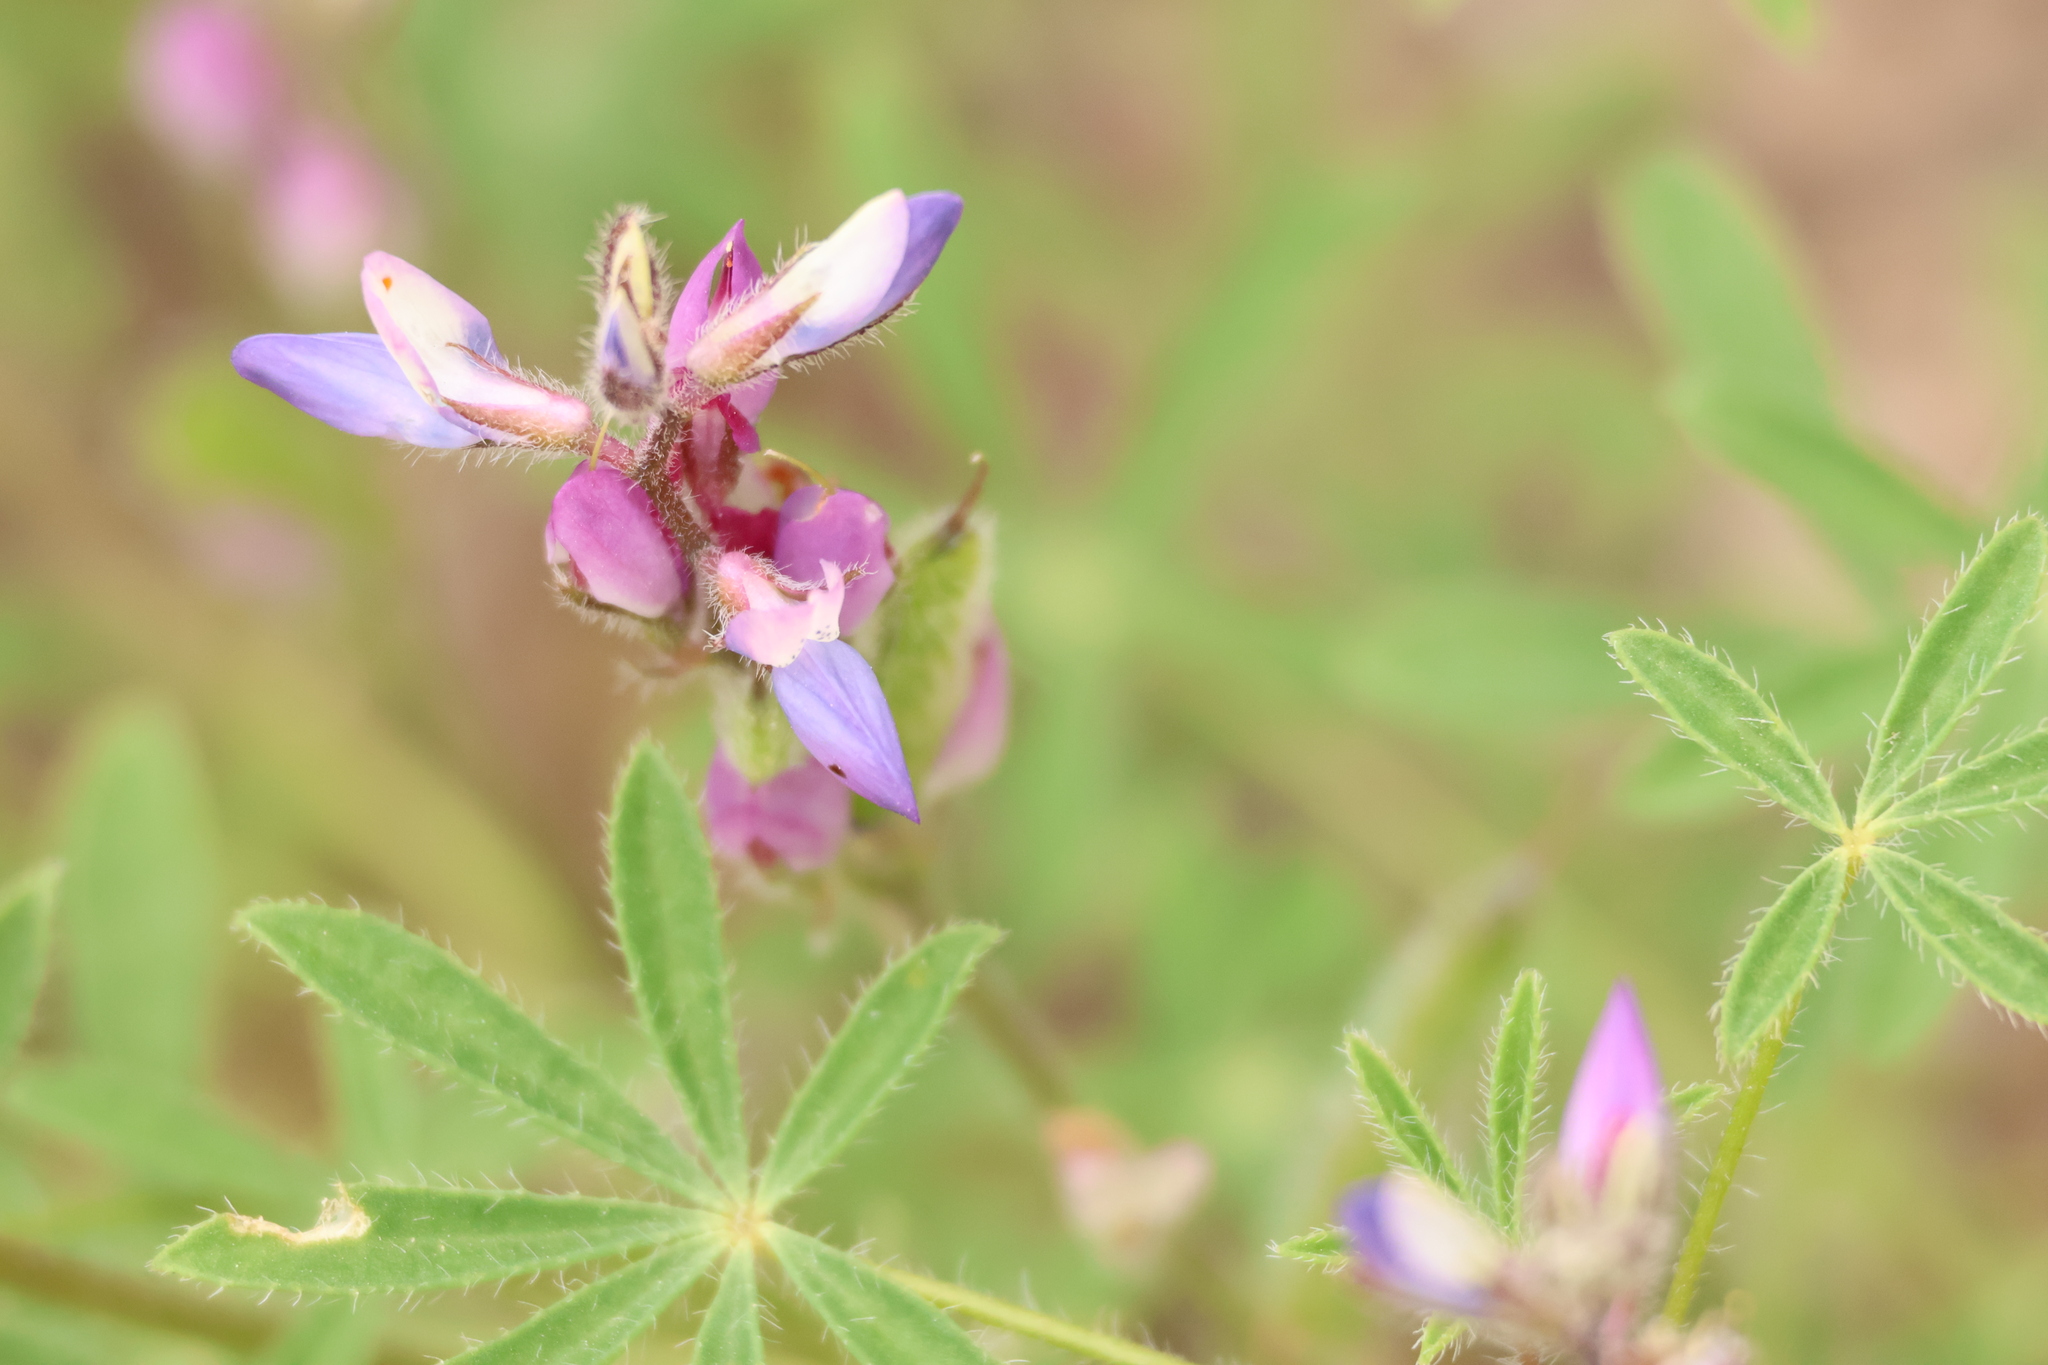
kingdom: Plantae
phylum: Tracheophyta
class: Magnoliopsida
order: Fabales
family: Fabaceae
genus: Lupinus
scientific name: Lupinus concinnus
